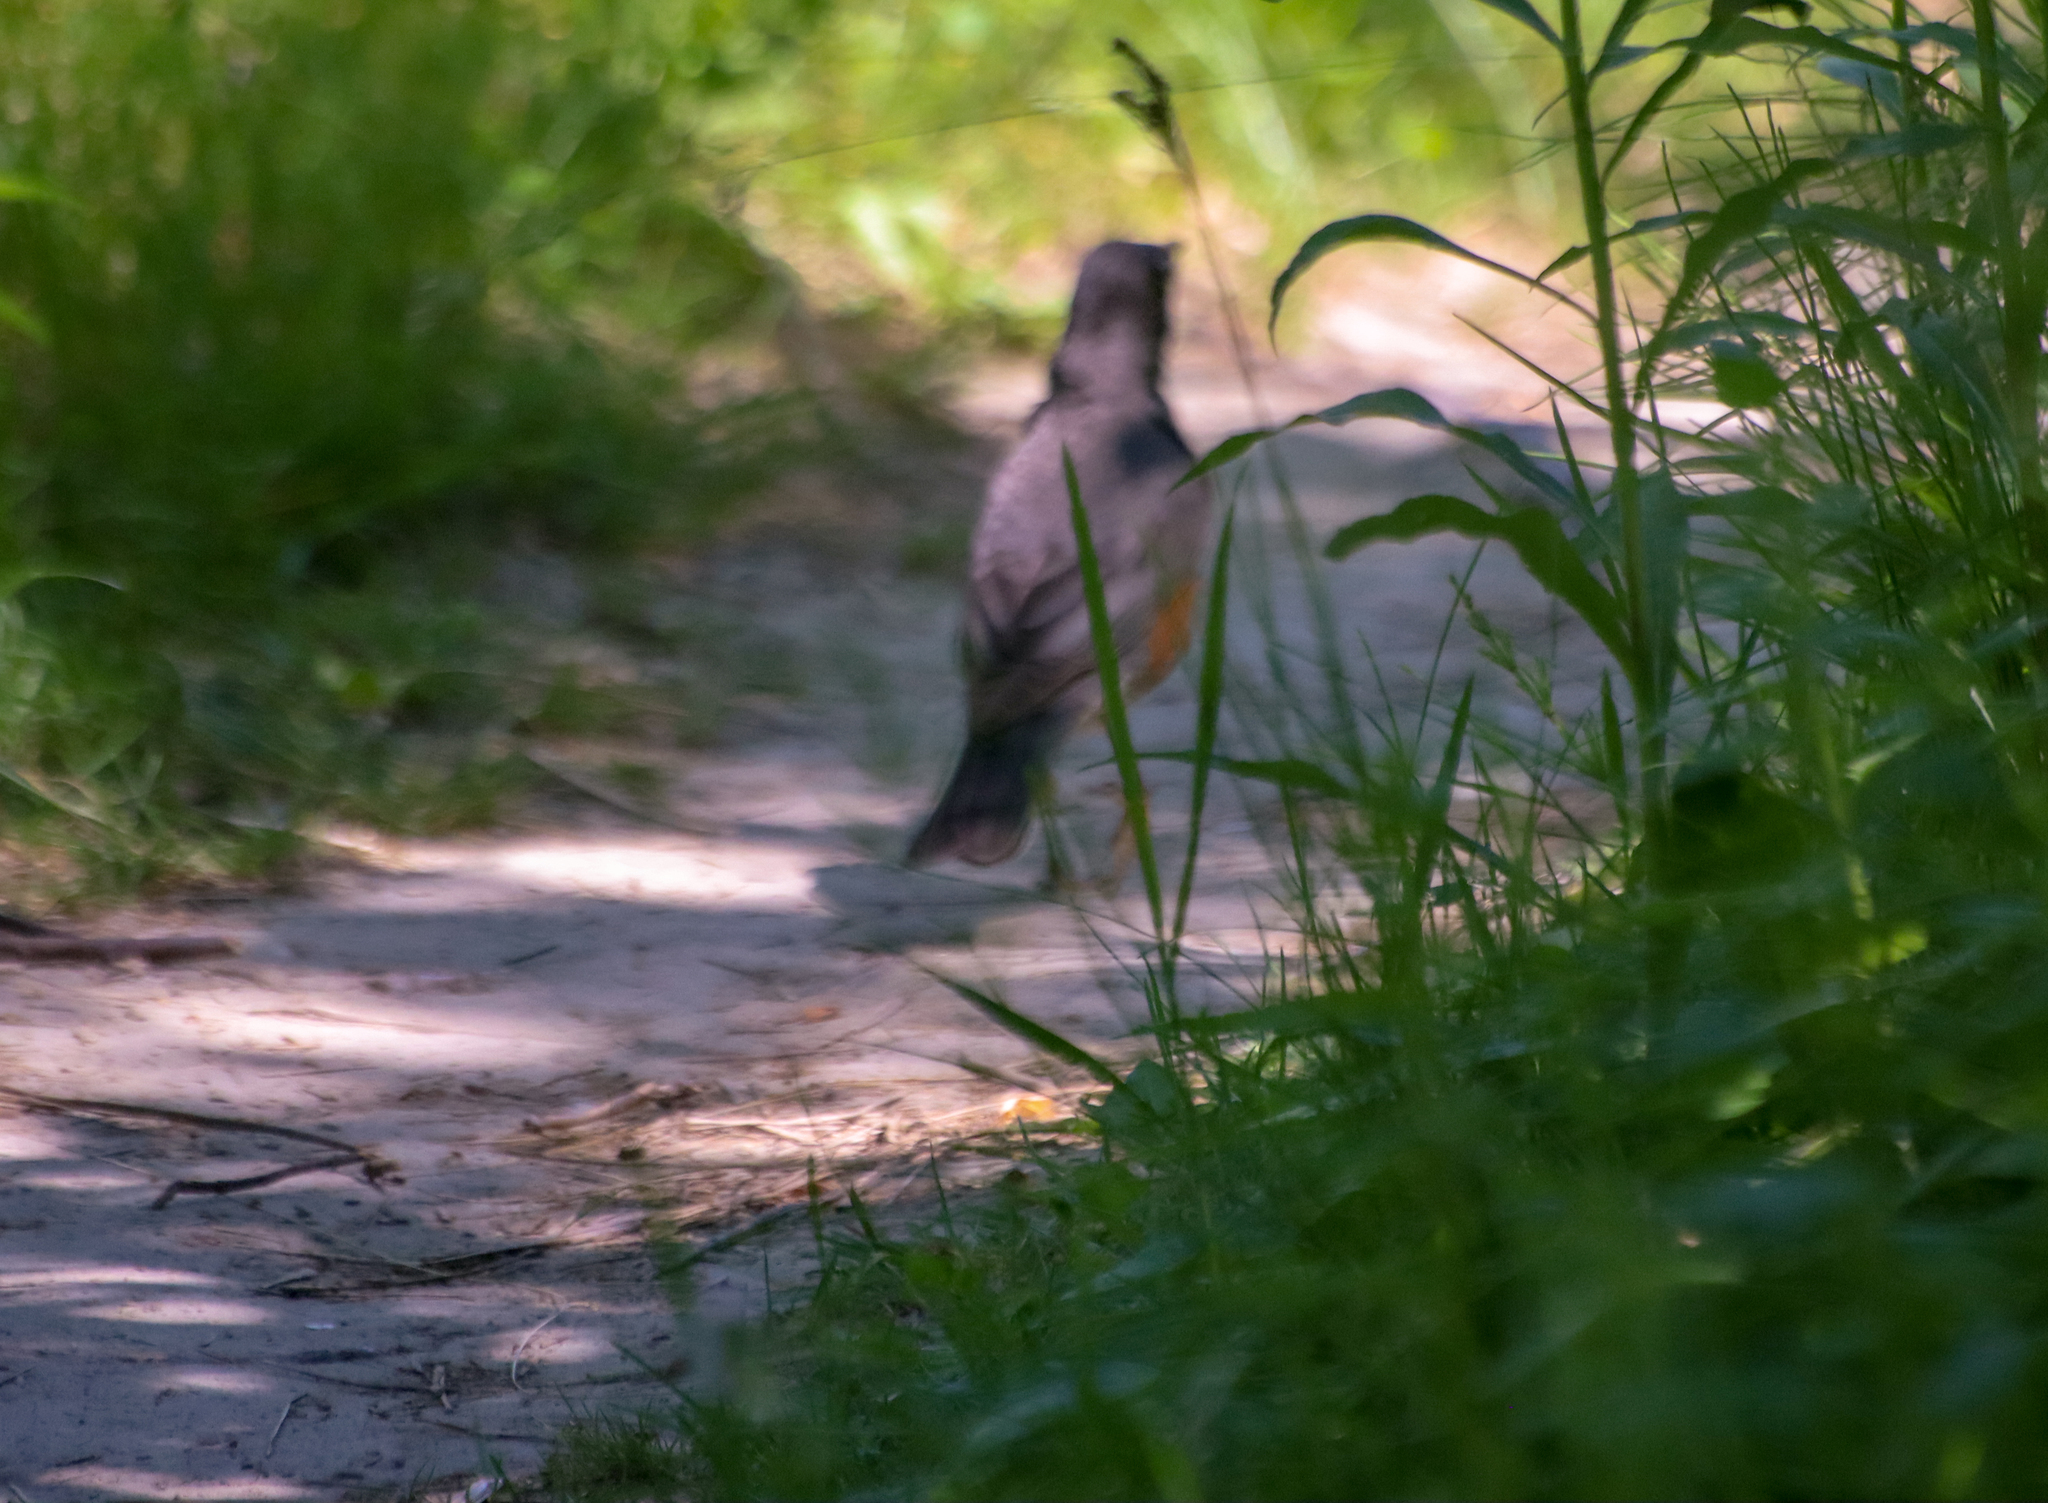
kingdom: Animalia
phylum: Chordata
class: Aves
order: Passeriformes
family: Turdidae
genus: Turdus
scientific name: Turdus migratorius
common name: American robin
